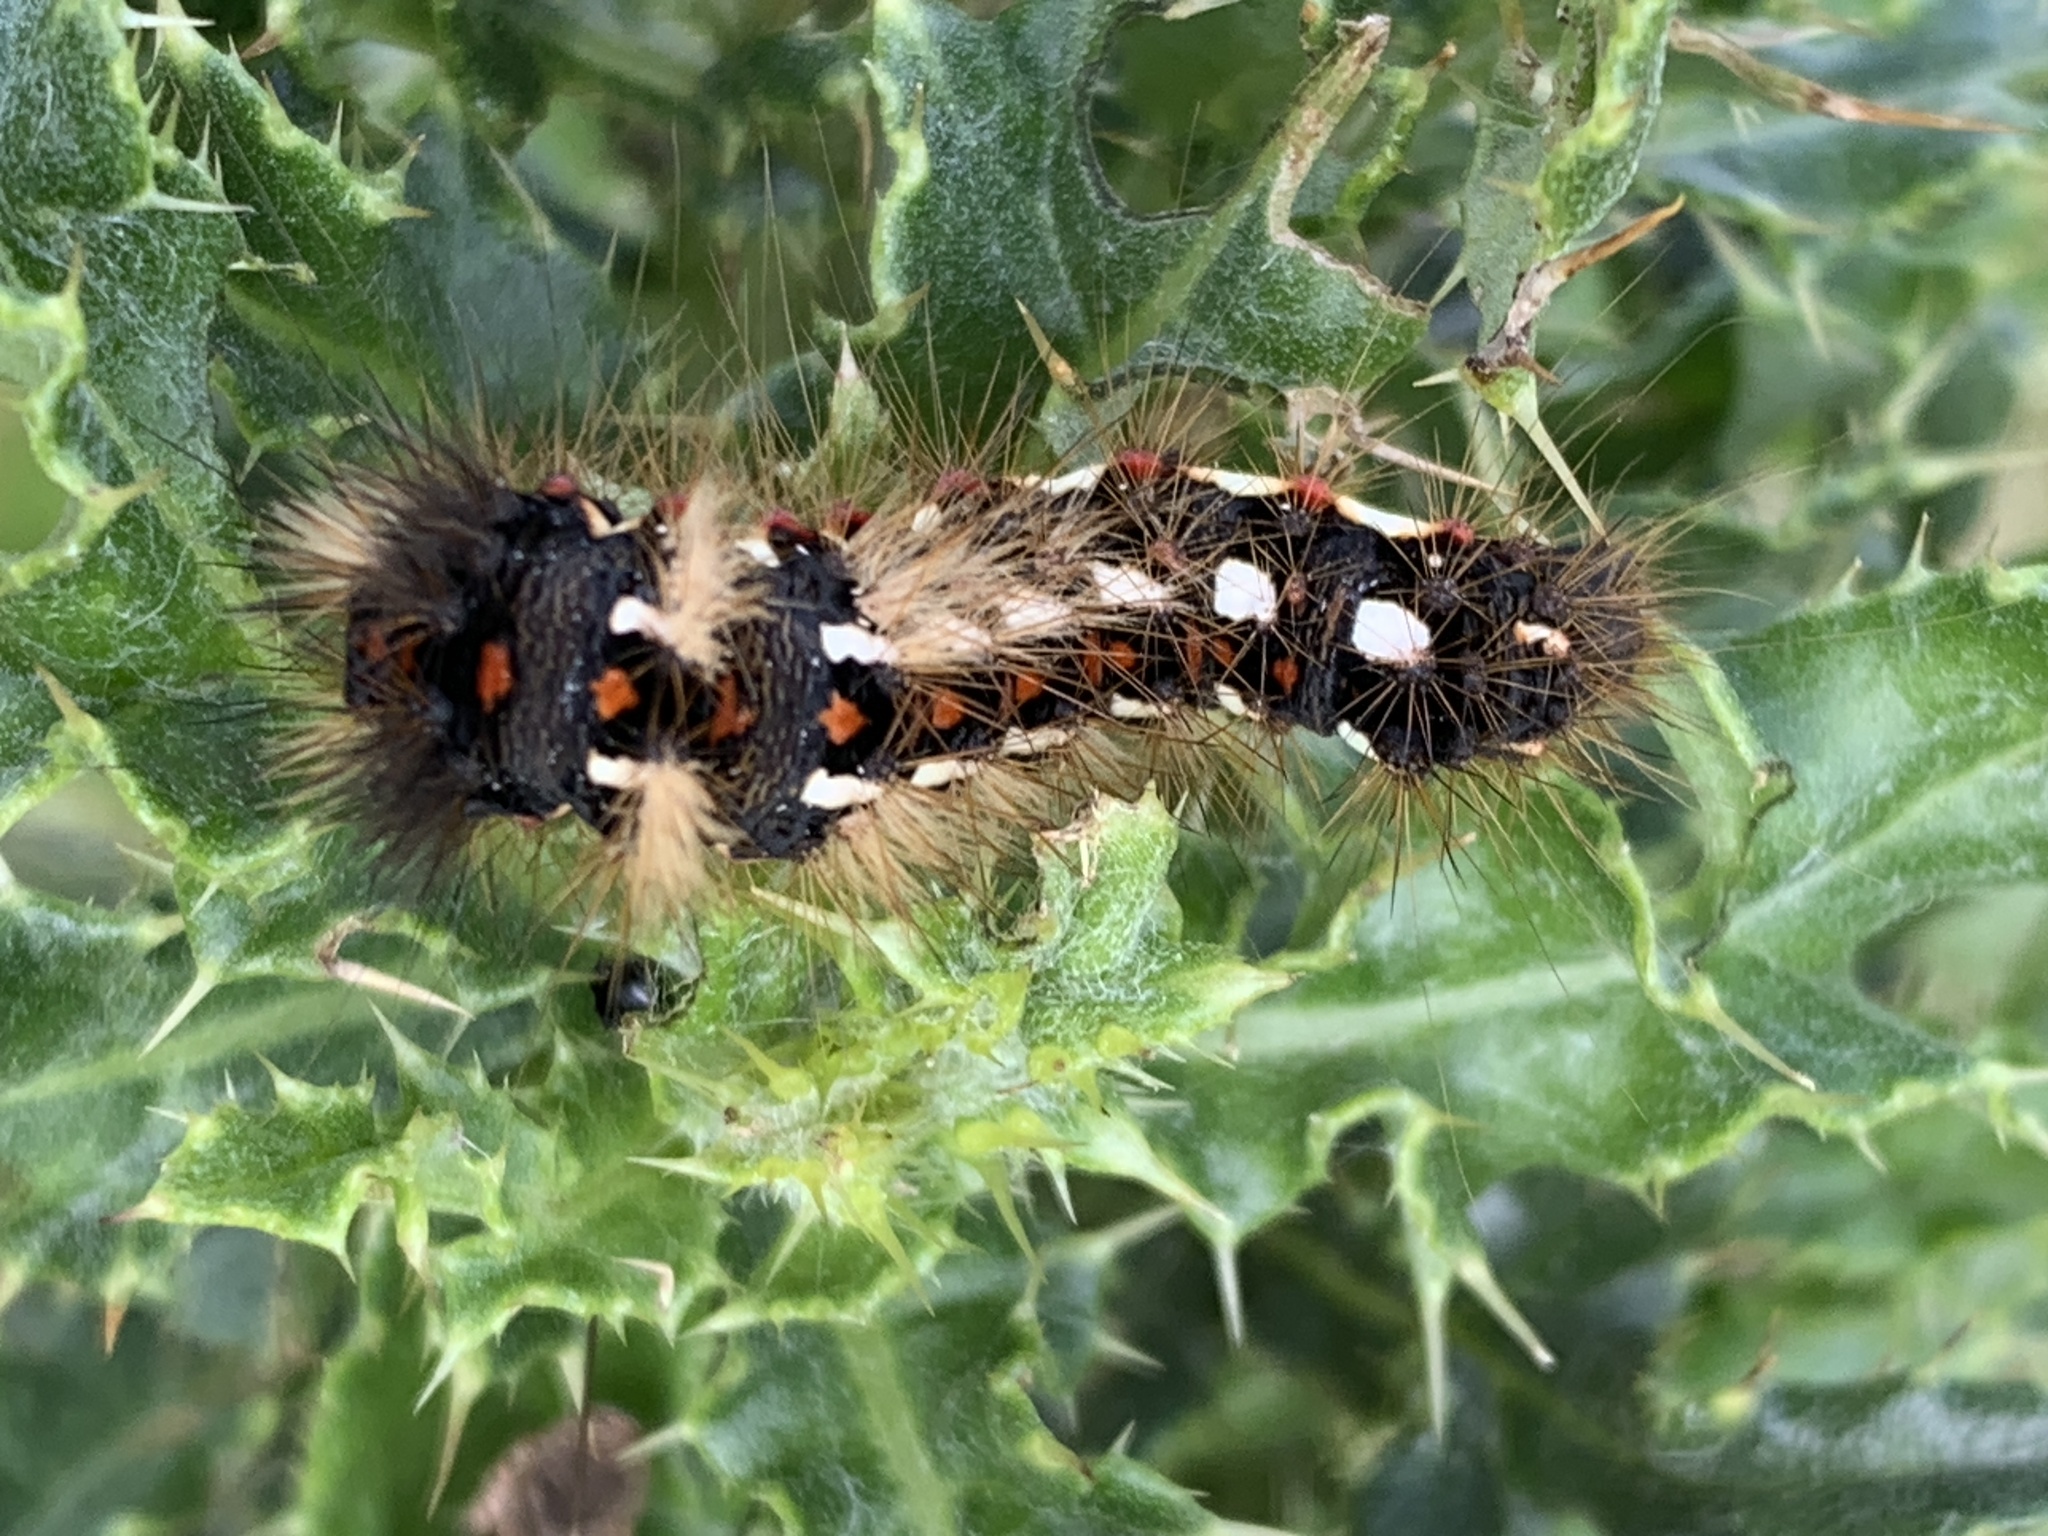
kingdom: Animalia
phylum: Arthropoda
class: Insecta
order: Lepidoptera
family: Noctuidae
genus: Acronicta
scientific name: Acronicta rumicis
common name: Knot grass
